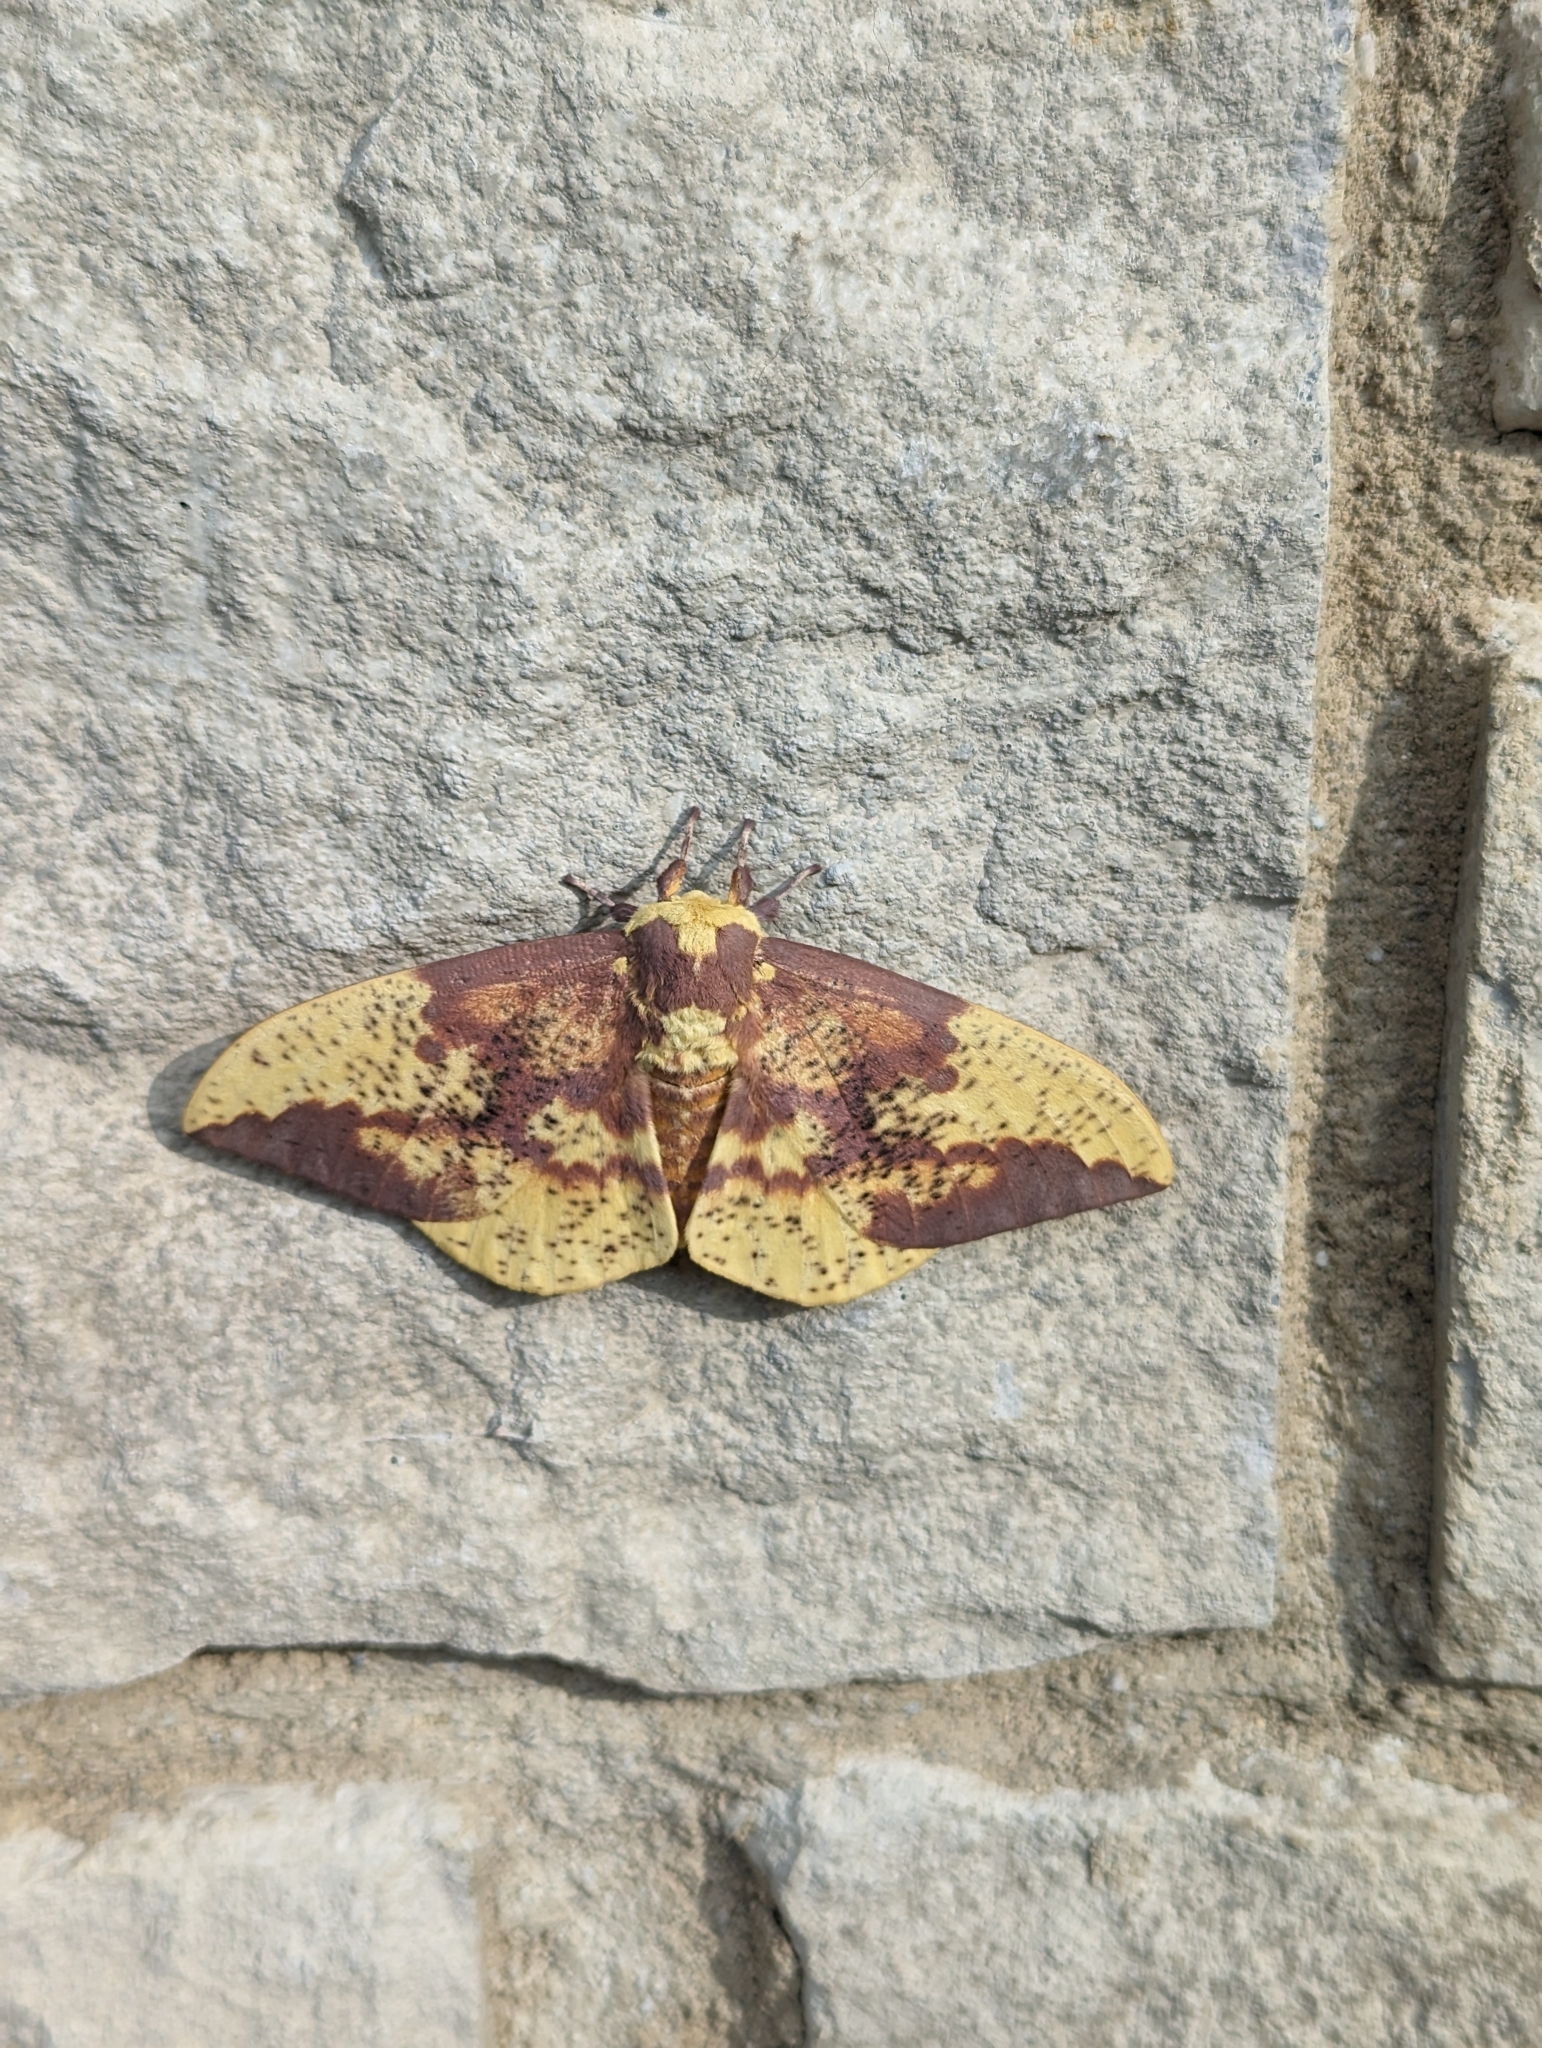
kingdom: Animalia
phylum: Arthropoda
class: Insecta
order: Lepidoptera
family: Saturniidae
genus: Eacles
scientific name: Eacles imperialis
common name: Imperial moth
